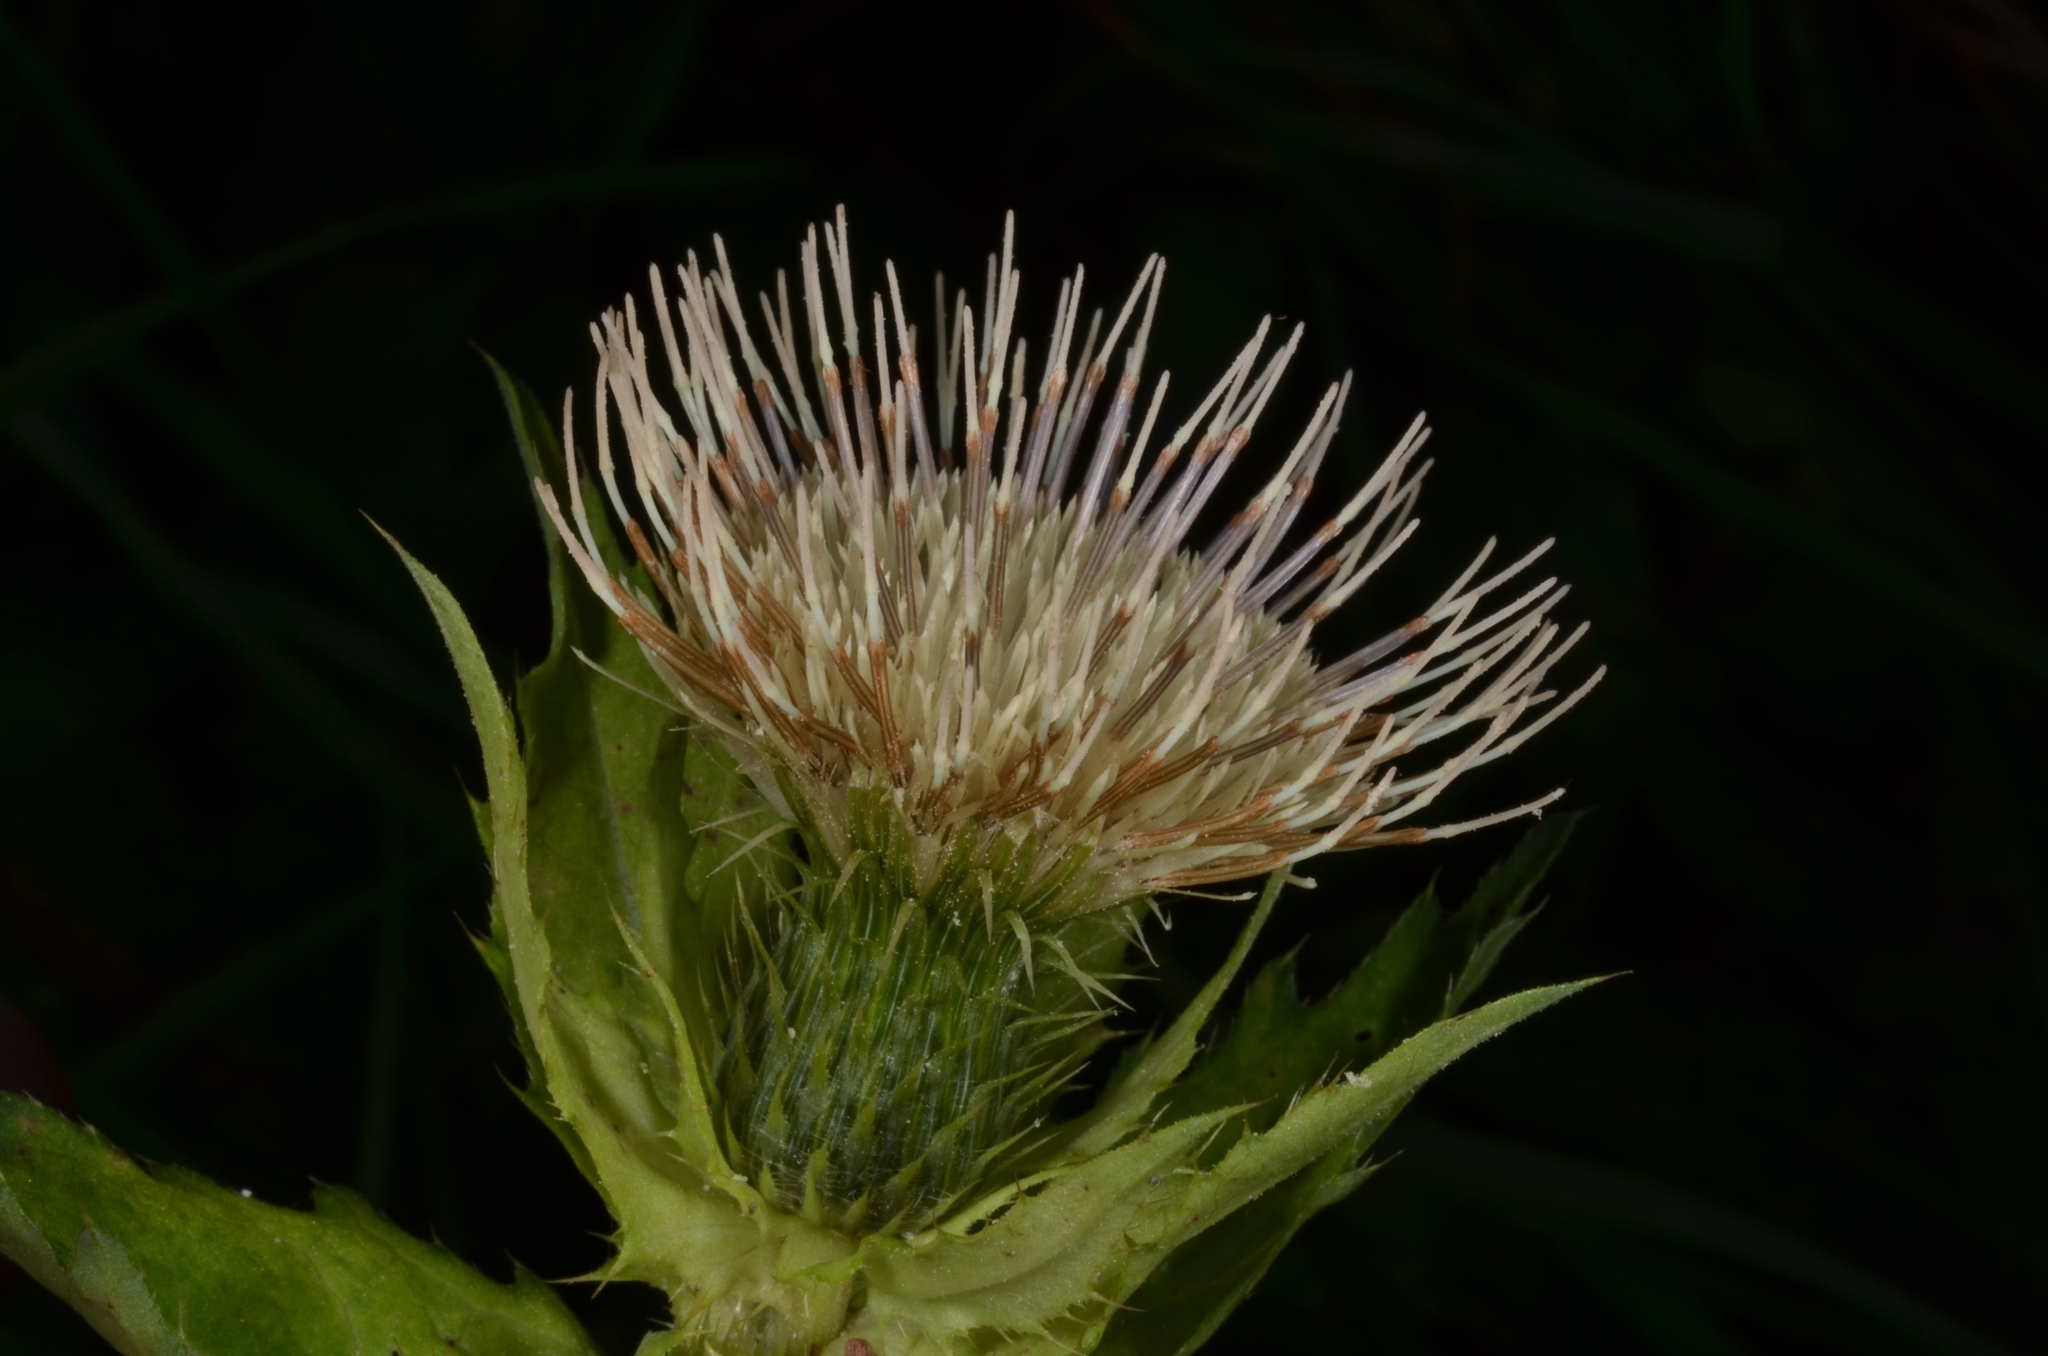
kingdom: Plantae
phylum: Tracheophyta
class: Magnoliopsida
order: Asterales
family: Asteraceae
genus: Cirsium
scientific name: Cirsium oleraceum
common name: Cabbage thistle
